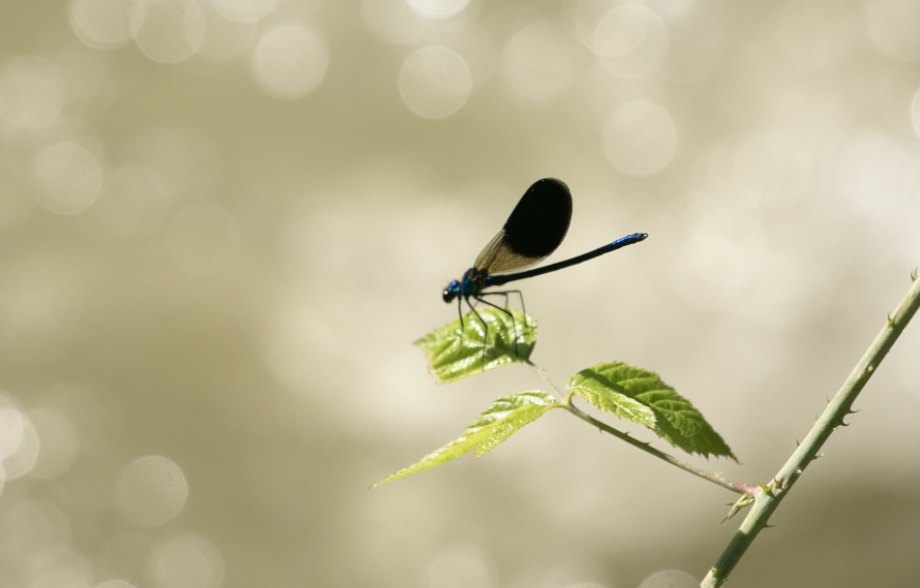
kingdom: Animalia
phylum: Arthropoda
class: Insecta
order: Odonata
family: Calopterygidae
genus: Calopteryx
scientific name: Calopteryx splendens
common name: Banded demoiselle
